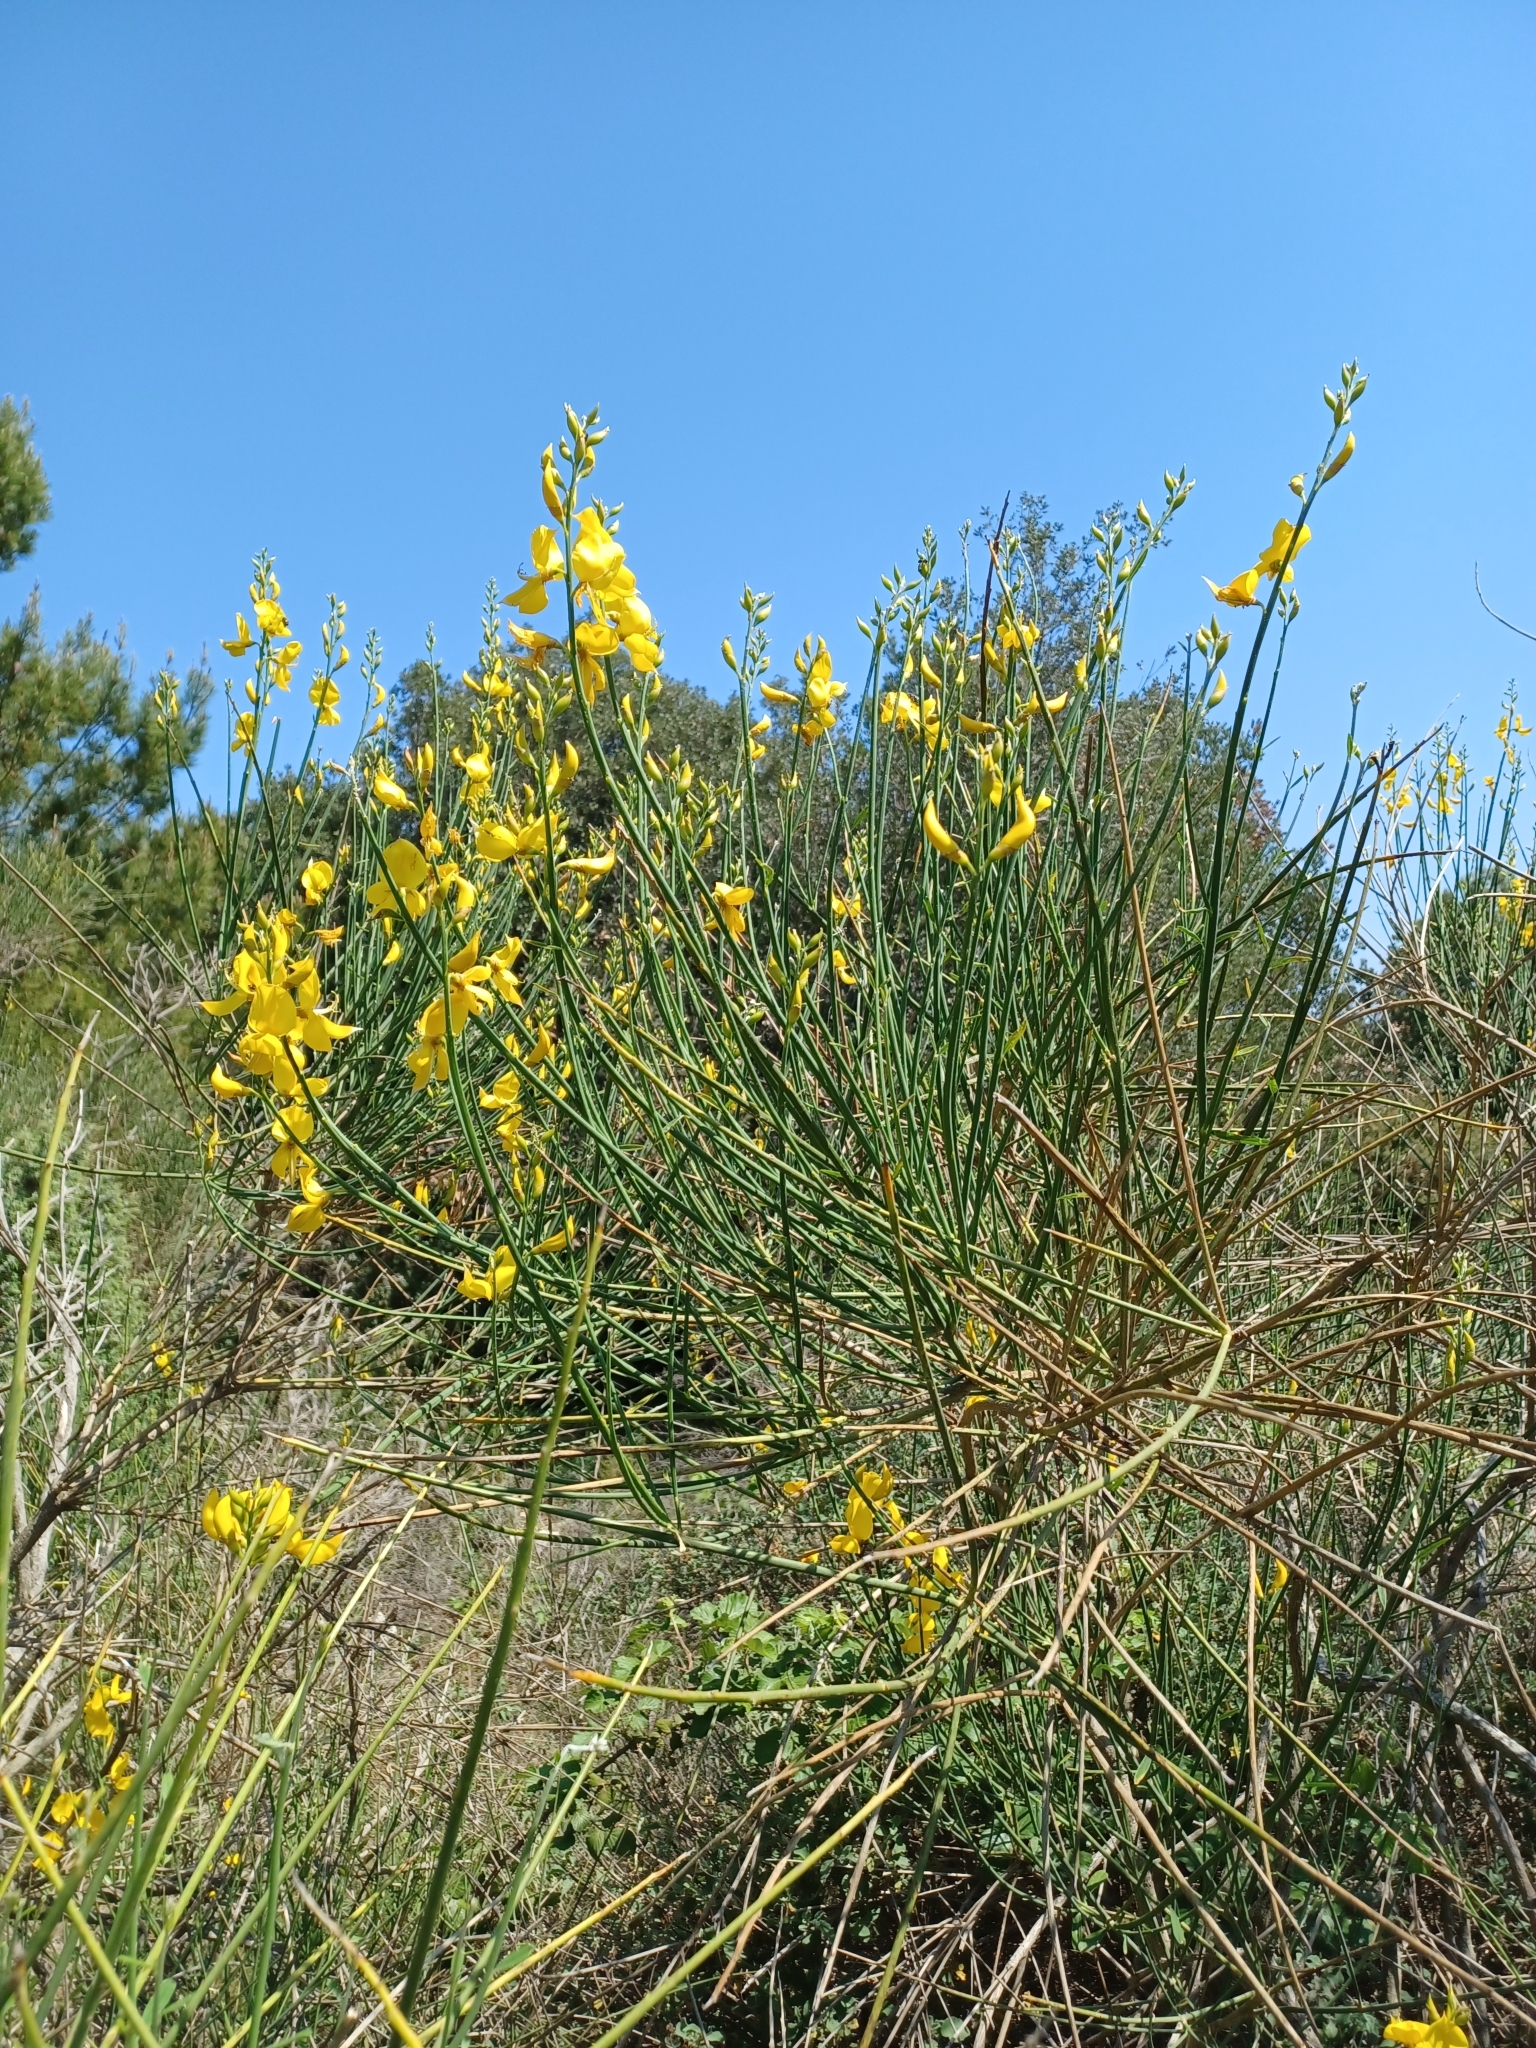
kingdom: Plantae
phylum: Tracheophyta
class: Magnoliopsida
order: Fabales
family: Fabaceae
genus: Spartium
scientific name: Spartium junceum
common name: Spanish broom
